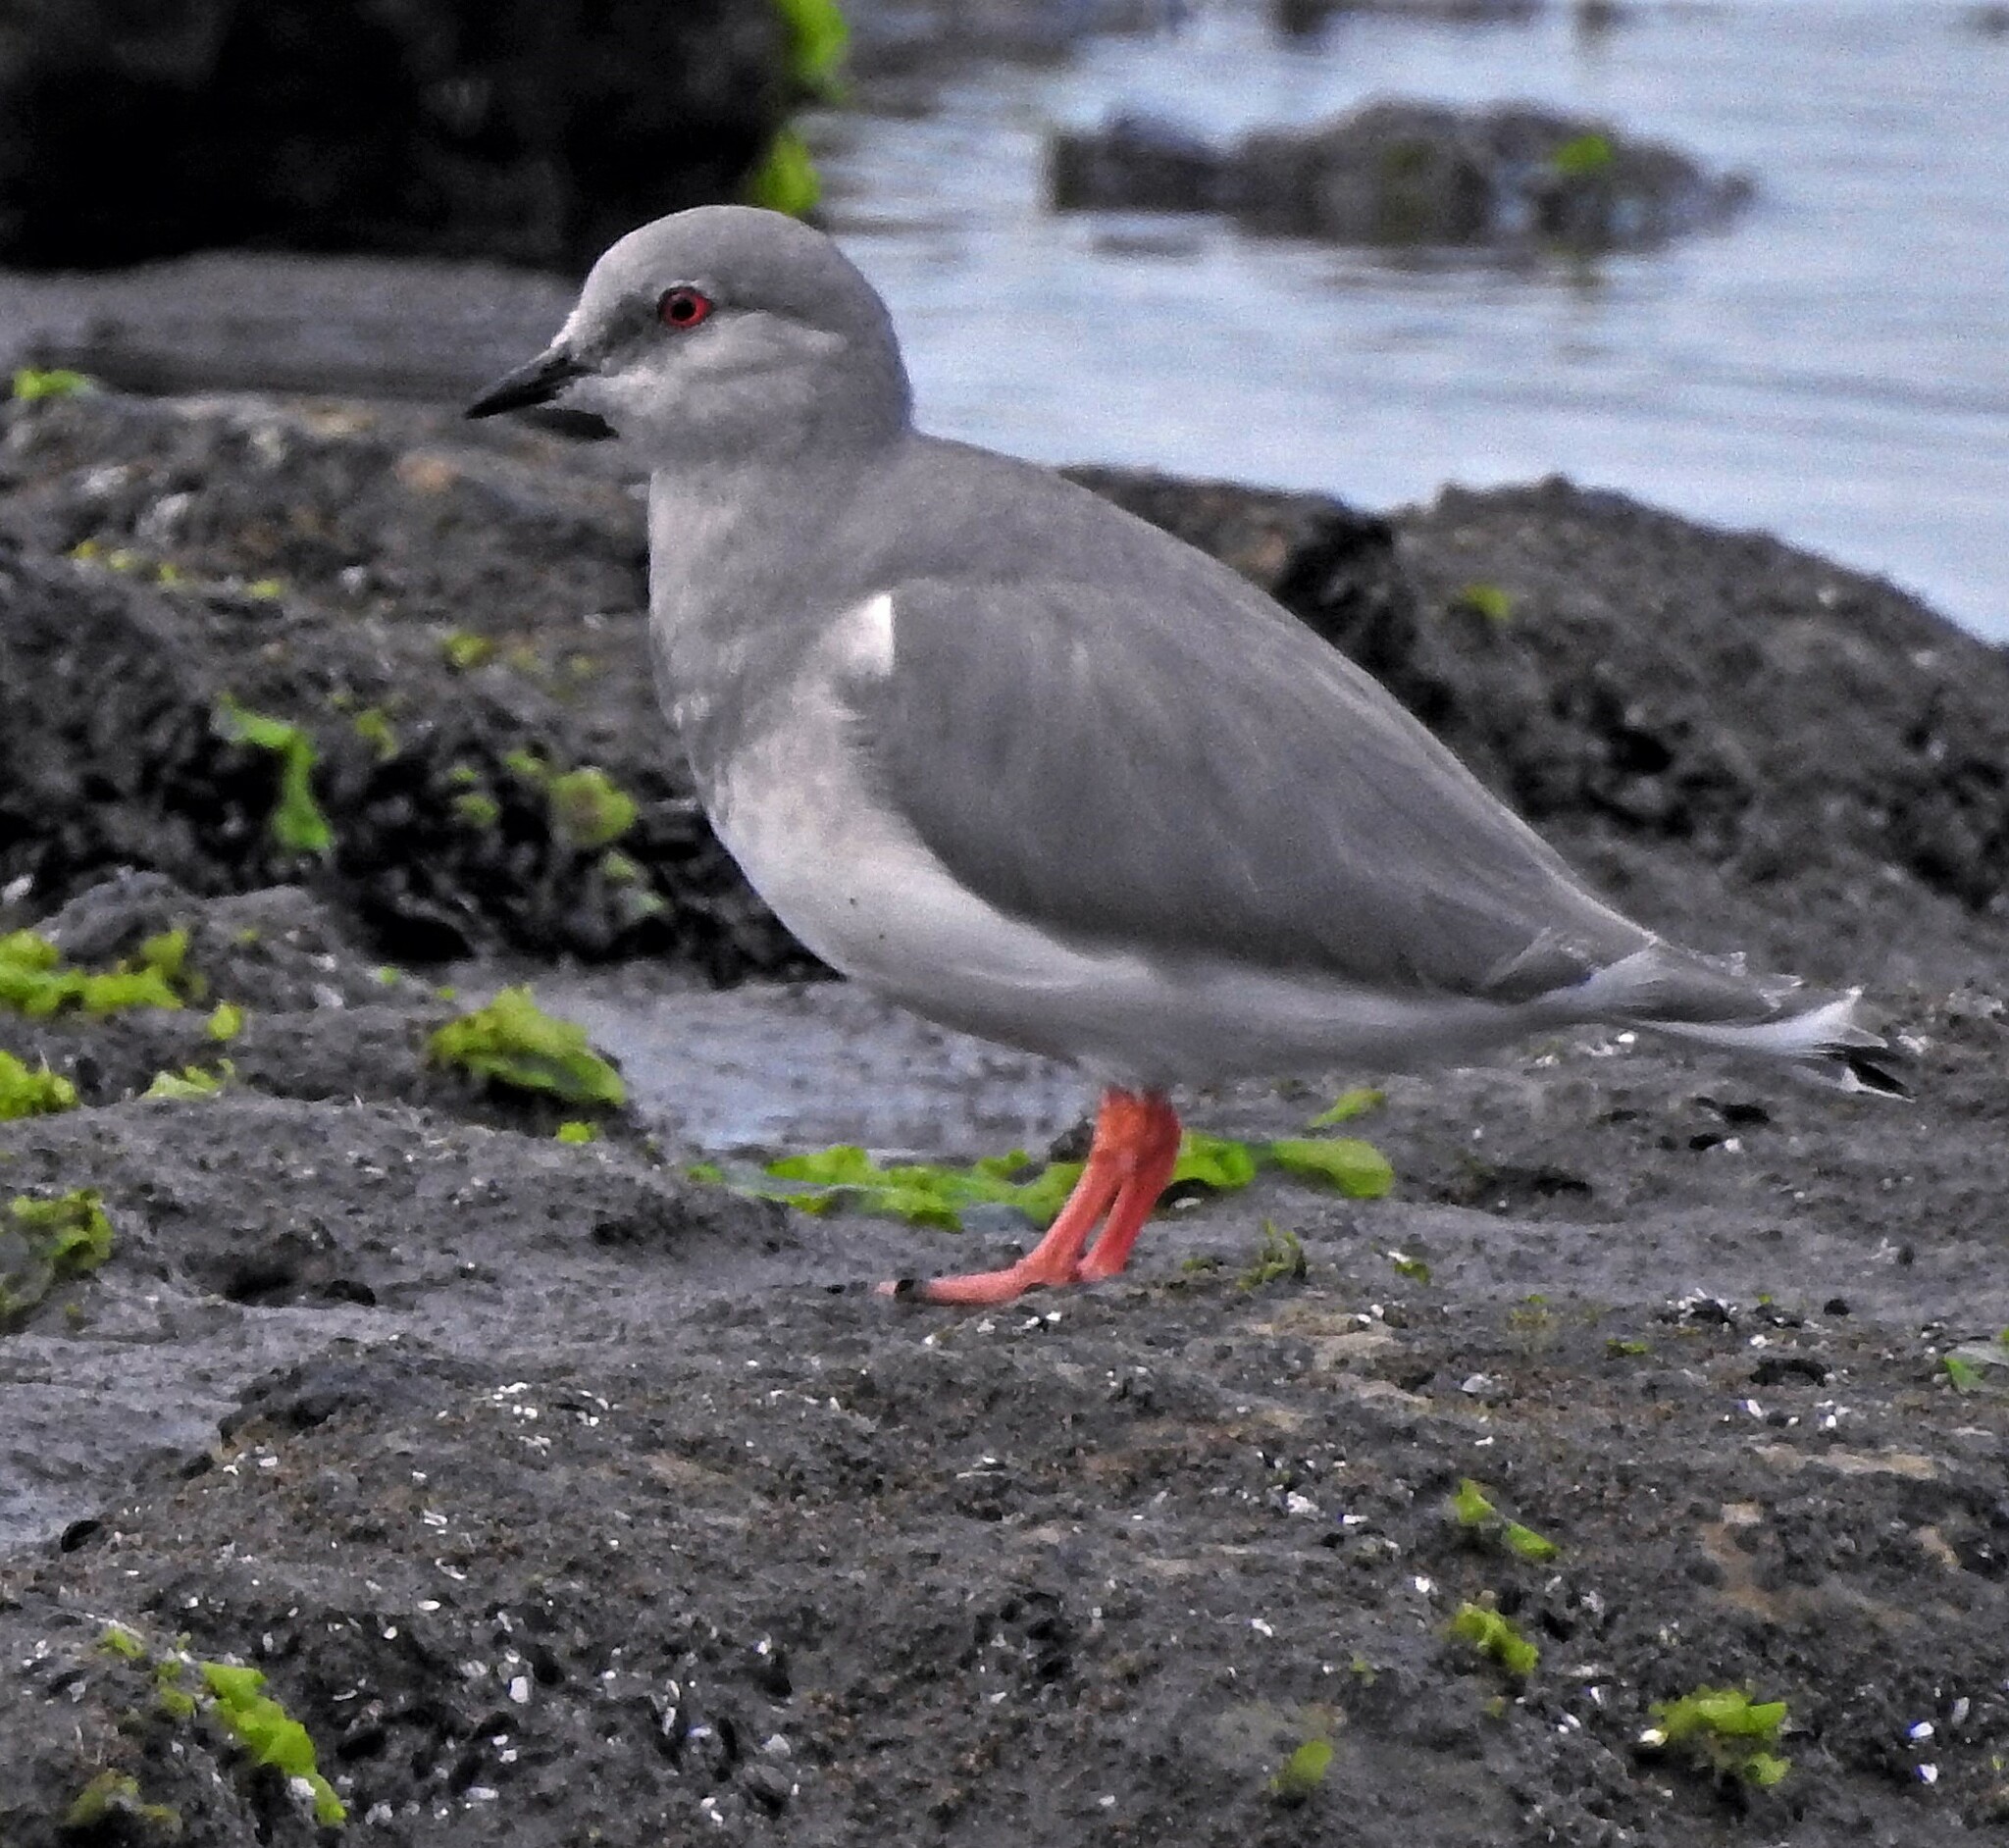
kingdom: Animalia
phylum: Chordata
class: Aves
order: Charadriiformes
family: Pluvianellidae
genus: Pluvianellus
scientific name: Pluvianellus socialis
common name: Magellanic plover
